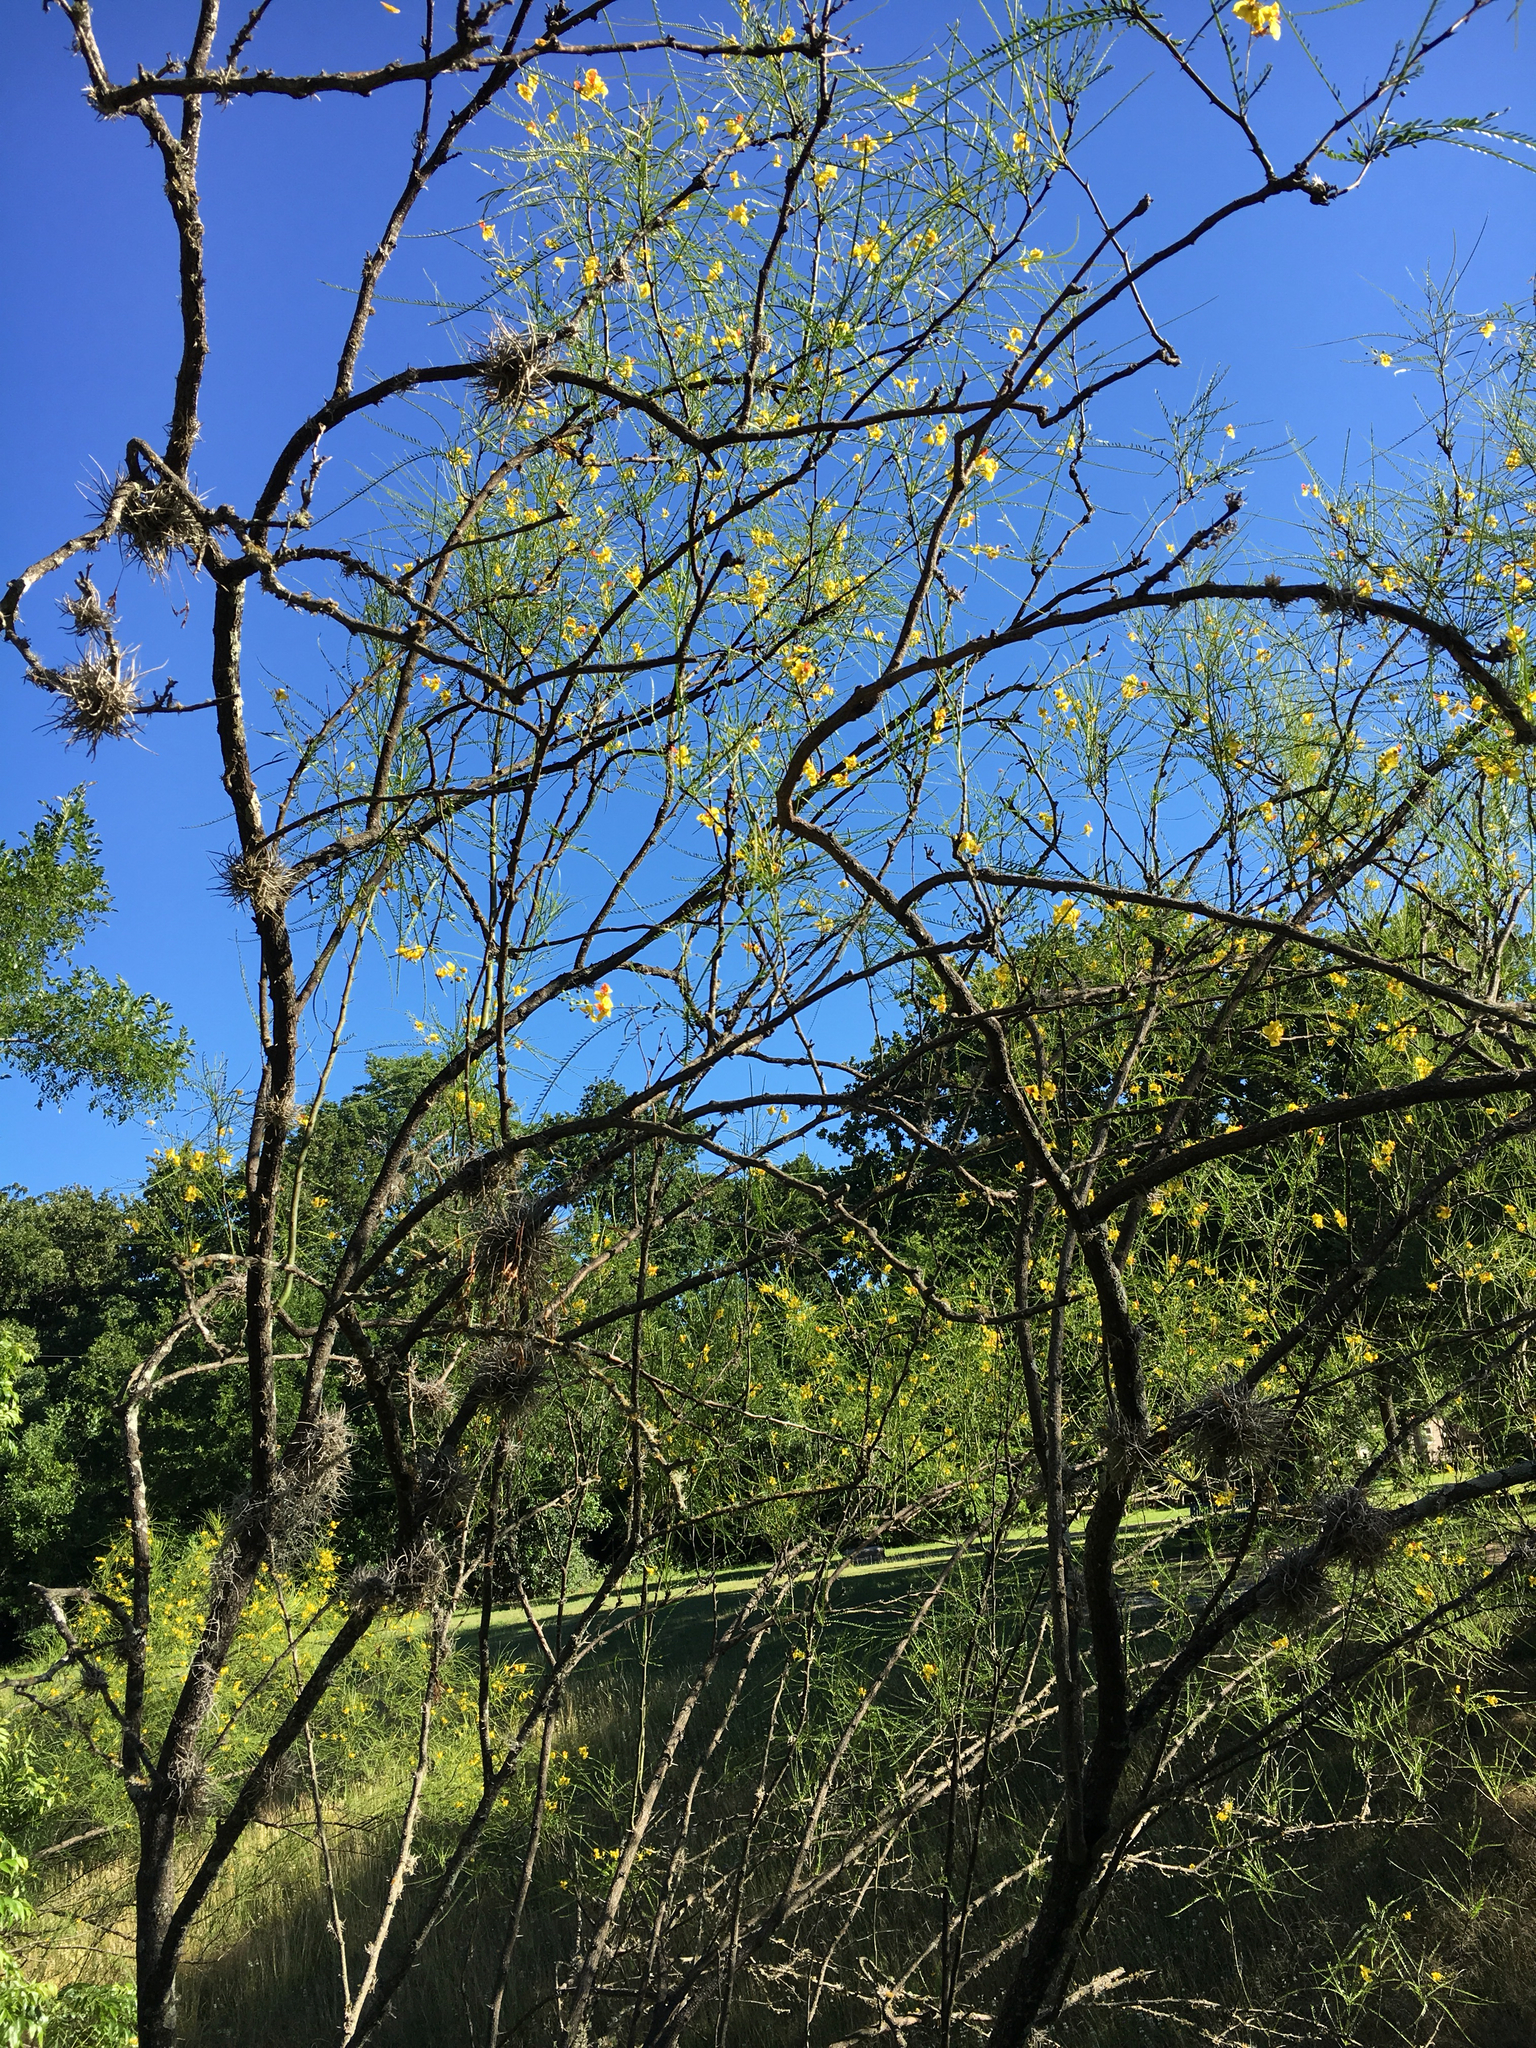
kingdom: Plantae
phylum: Tracheophyta
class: Magnoliopsida
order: Fabales
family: Fabaceae
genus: Parkinsonia
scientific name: Parkinsonia aculeata
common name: Jerusalem thorn
